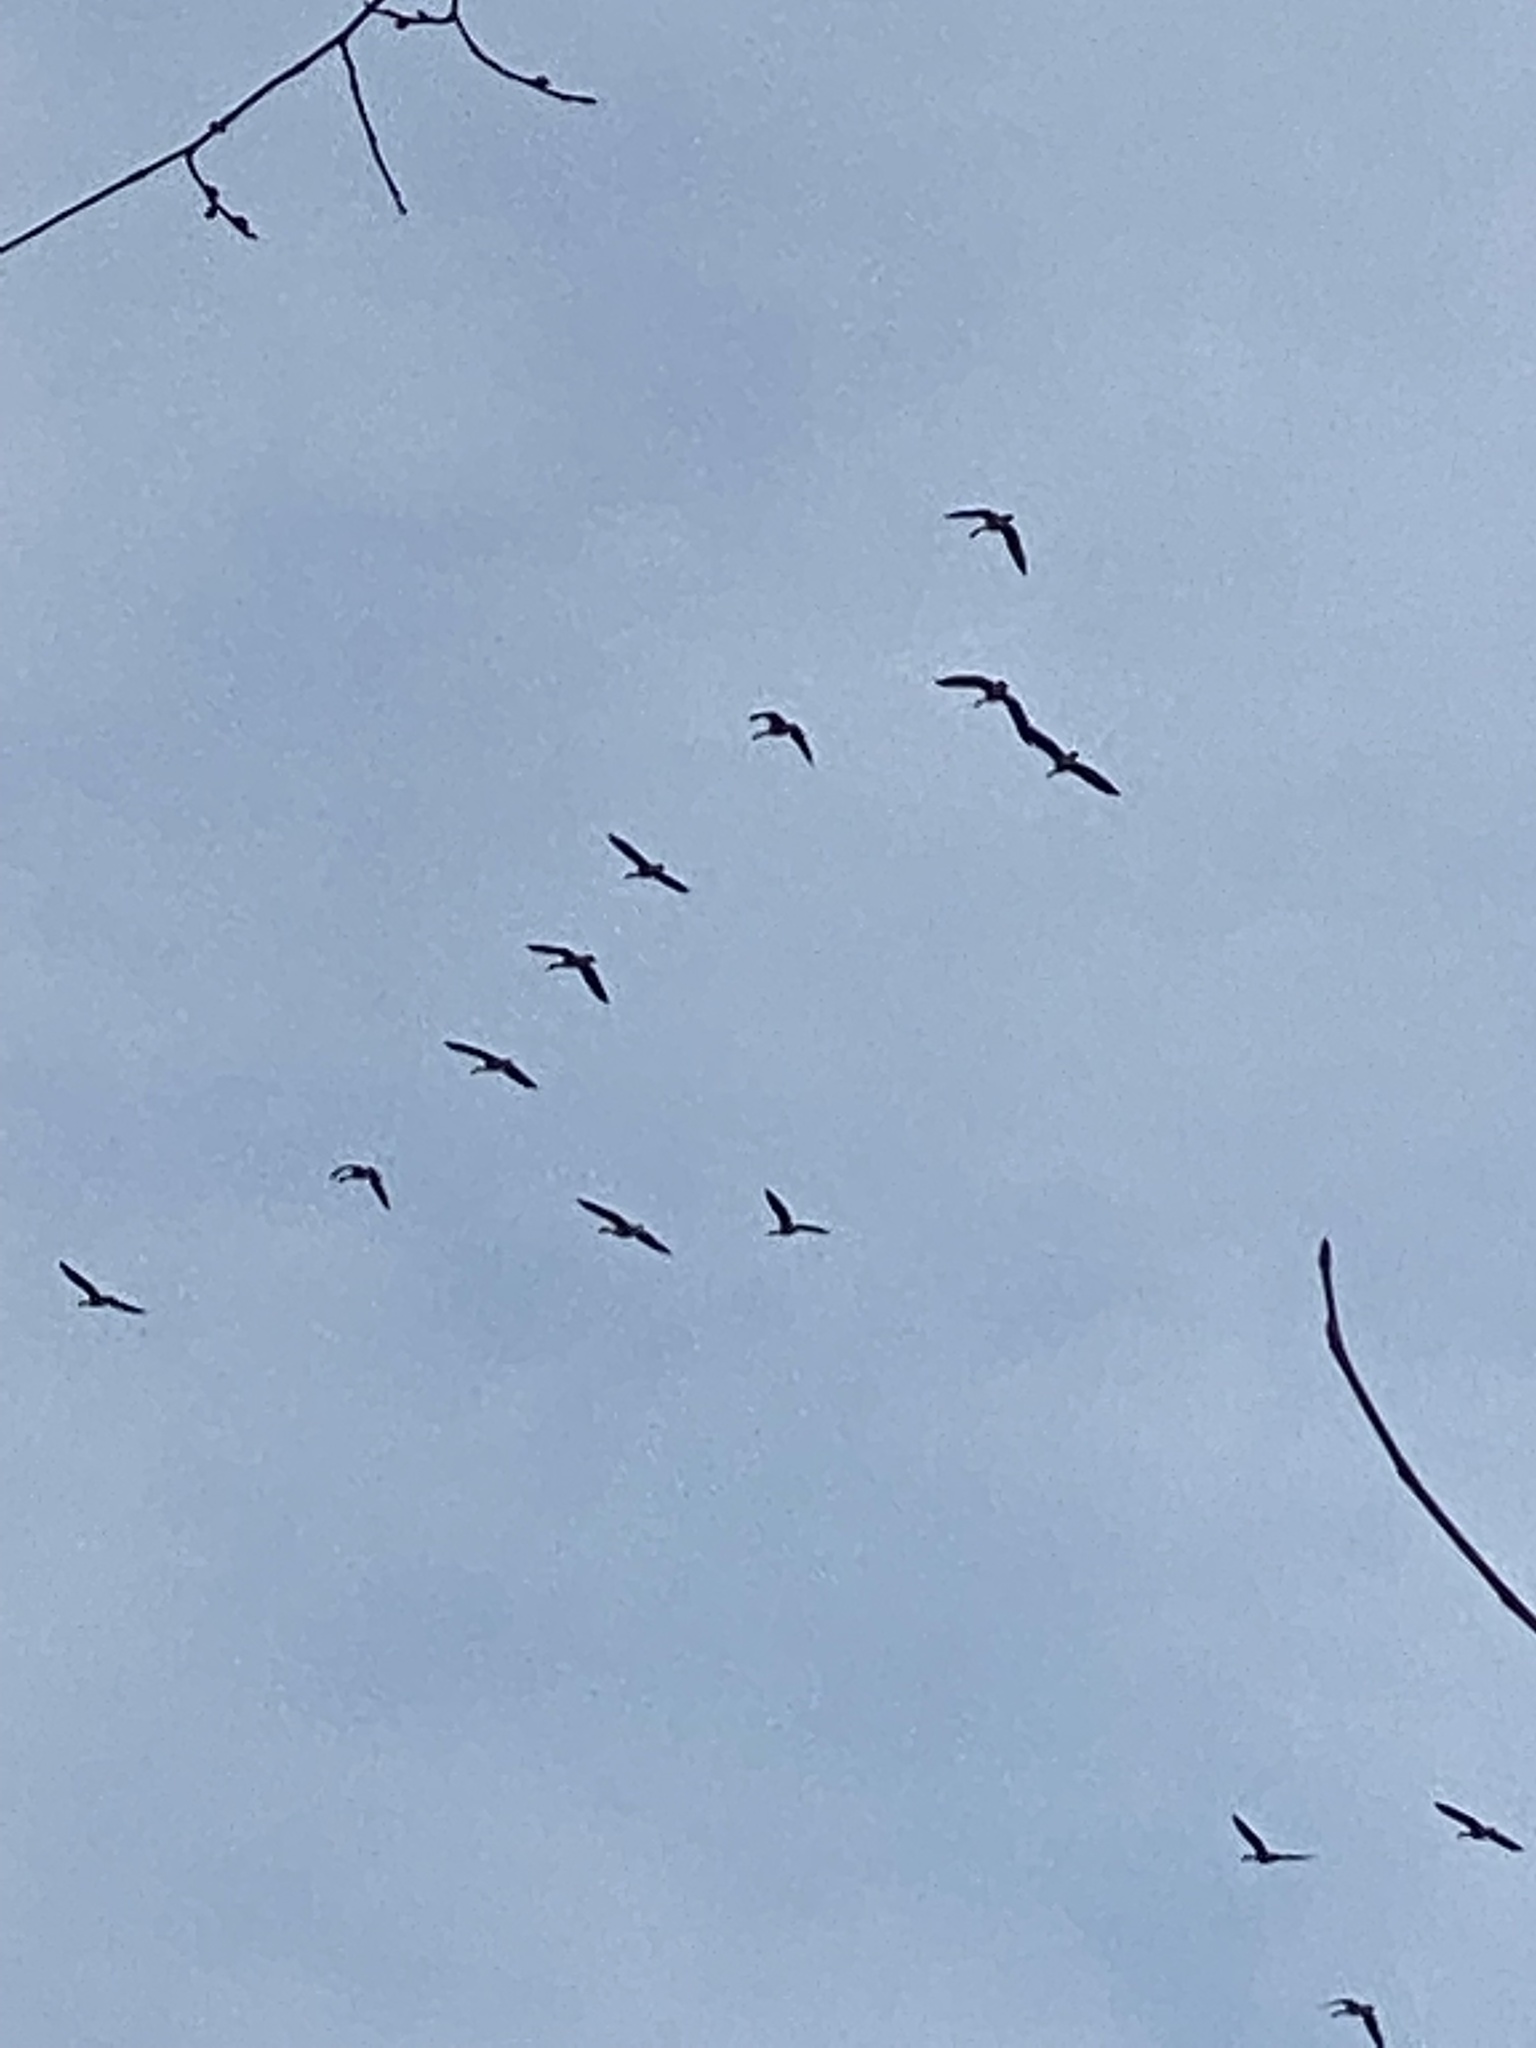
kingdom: Animalia
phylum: Chordata
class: Aves
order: Anseriformes
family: Anatidae
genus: Branta
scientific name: Branta canadensis
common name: Canada goose
